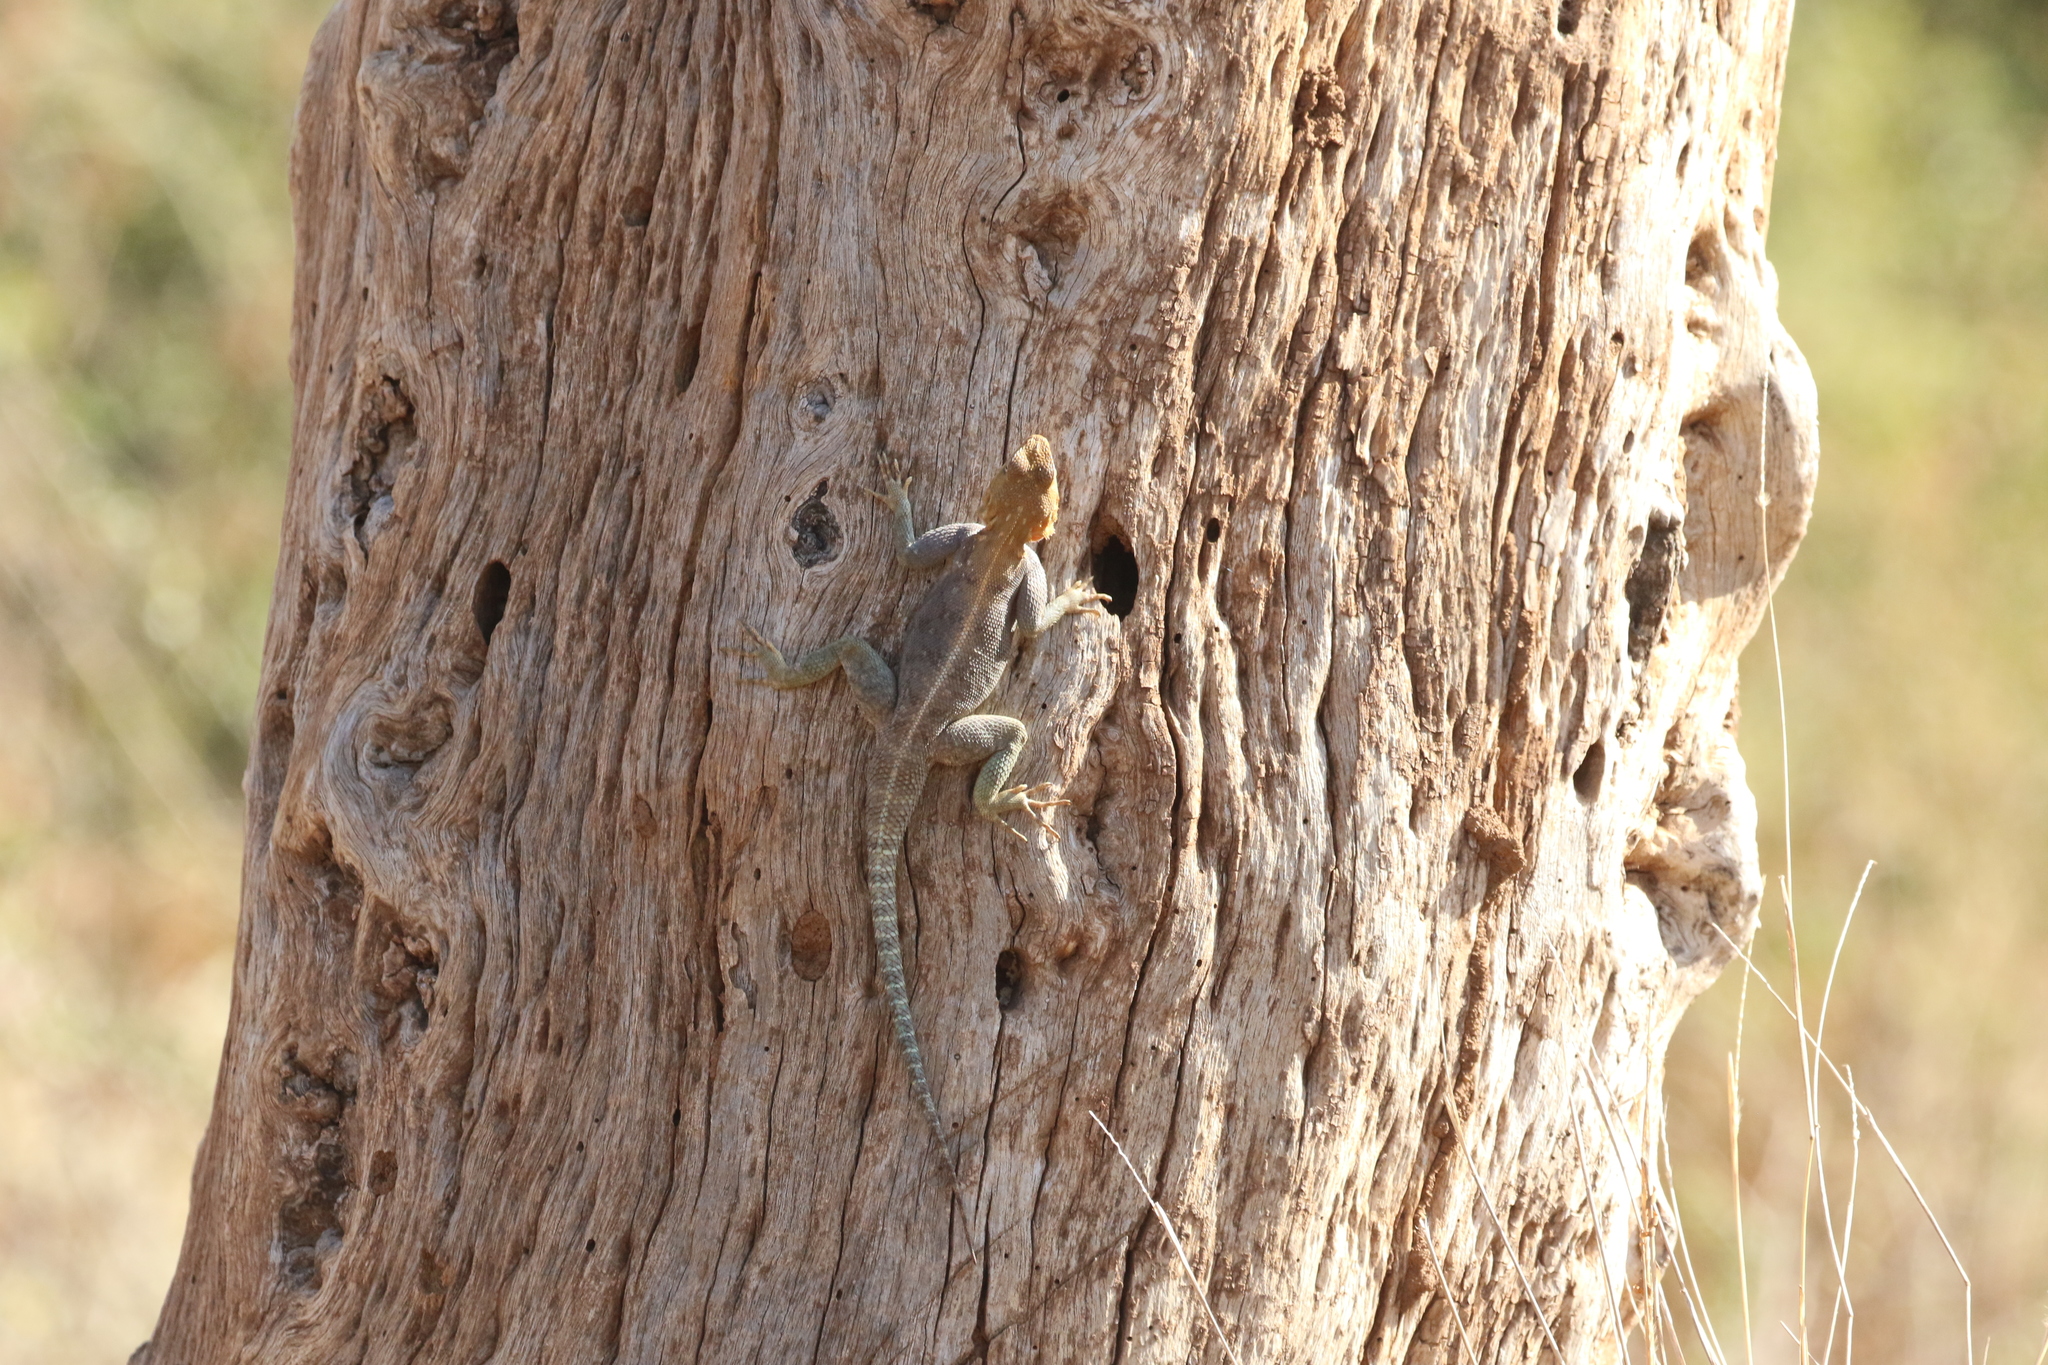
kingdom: Animalia
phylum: Chordata
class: Squamata
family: Agamidae
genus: Agama
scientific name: Agama lionotus
